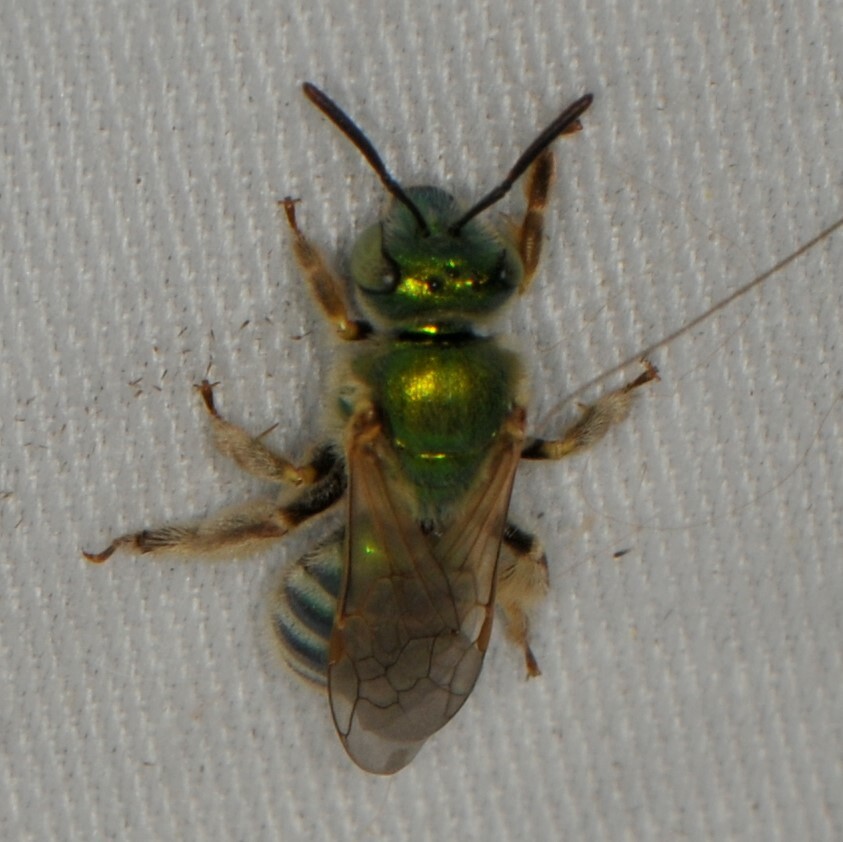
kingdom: Animalia
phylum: Arthropoda
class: Insecta
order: Hymenoptera
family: Halictidae
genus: Agapostemon
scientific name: Agapostemon
